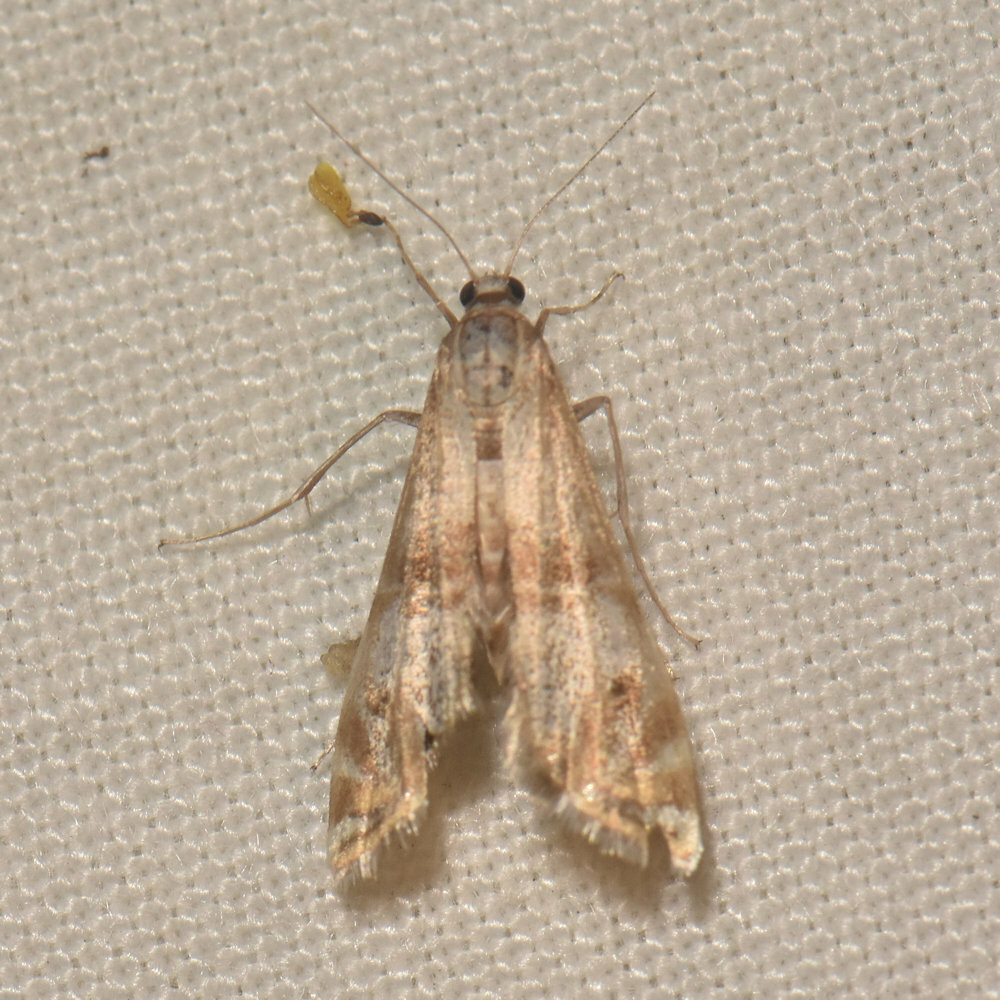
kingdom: Animalia
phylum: Arthropoda
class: Insecta
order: Lepidoptera
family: Crambidae
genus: Petrophila
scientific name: Petrophila bifascialis
